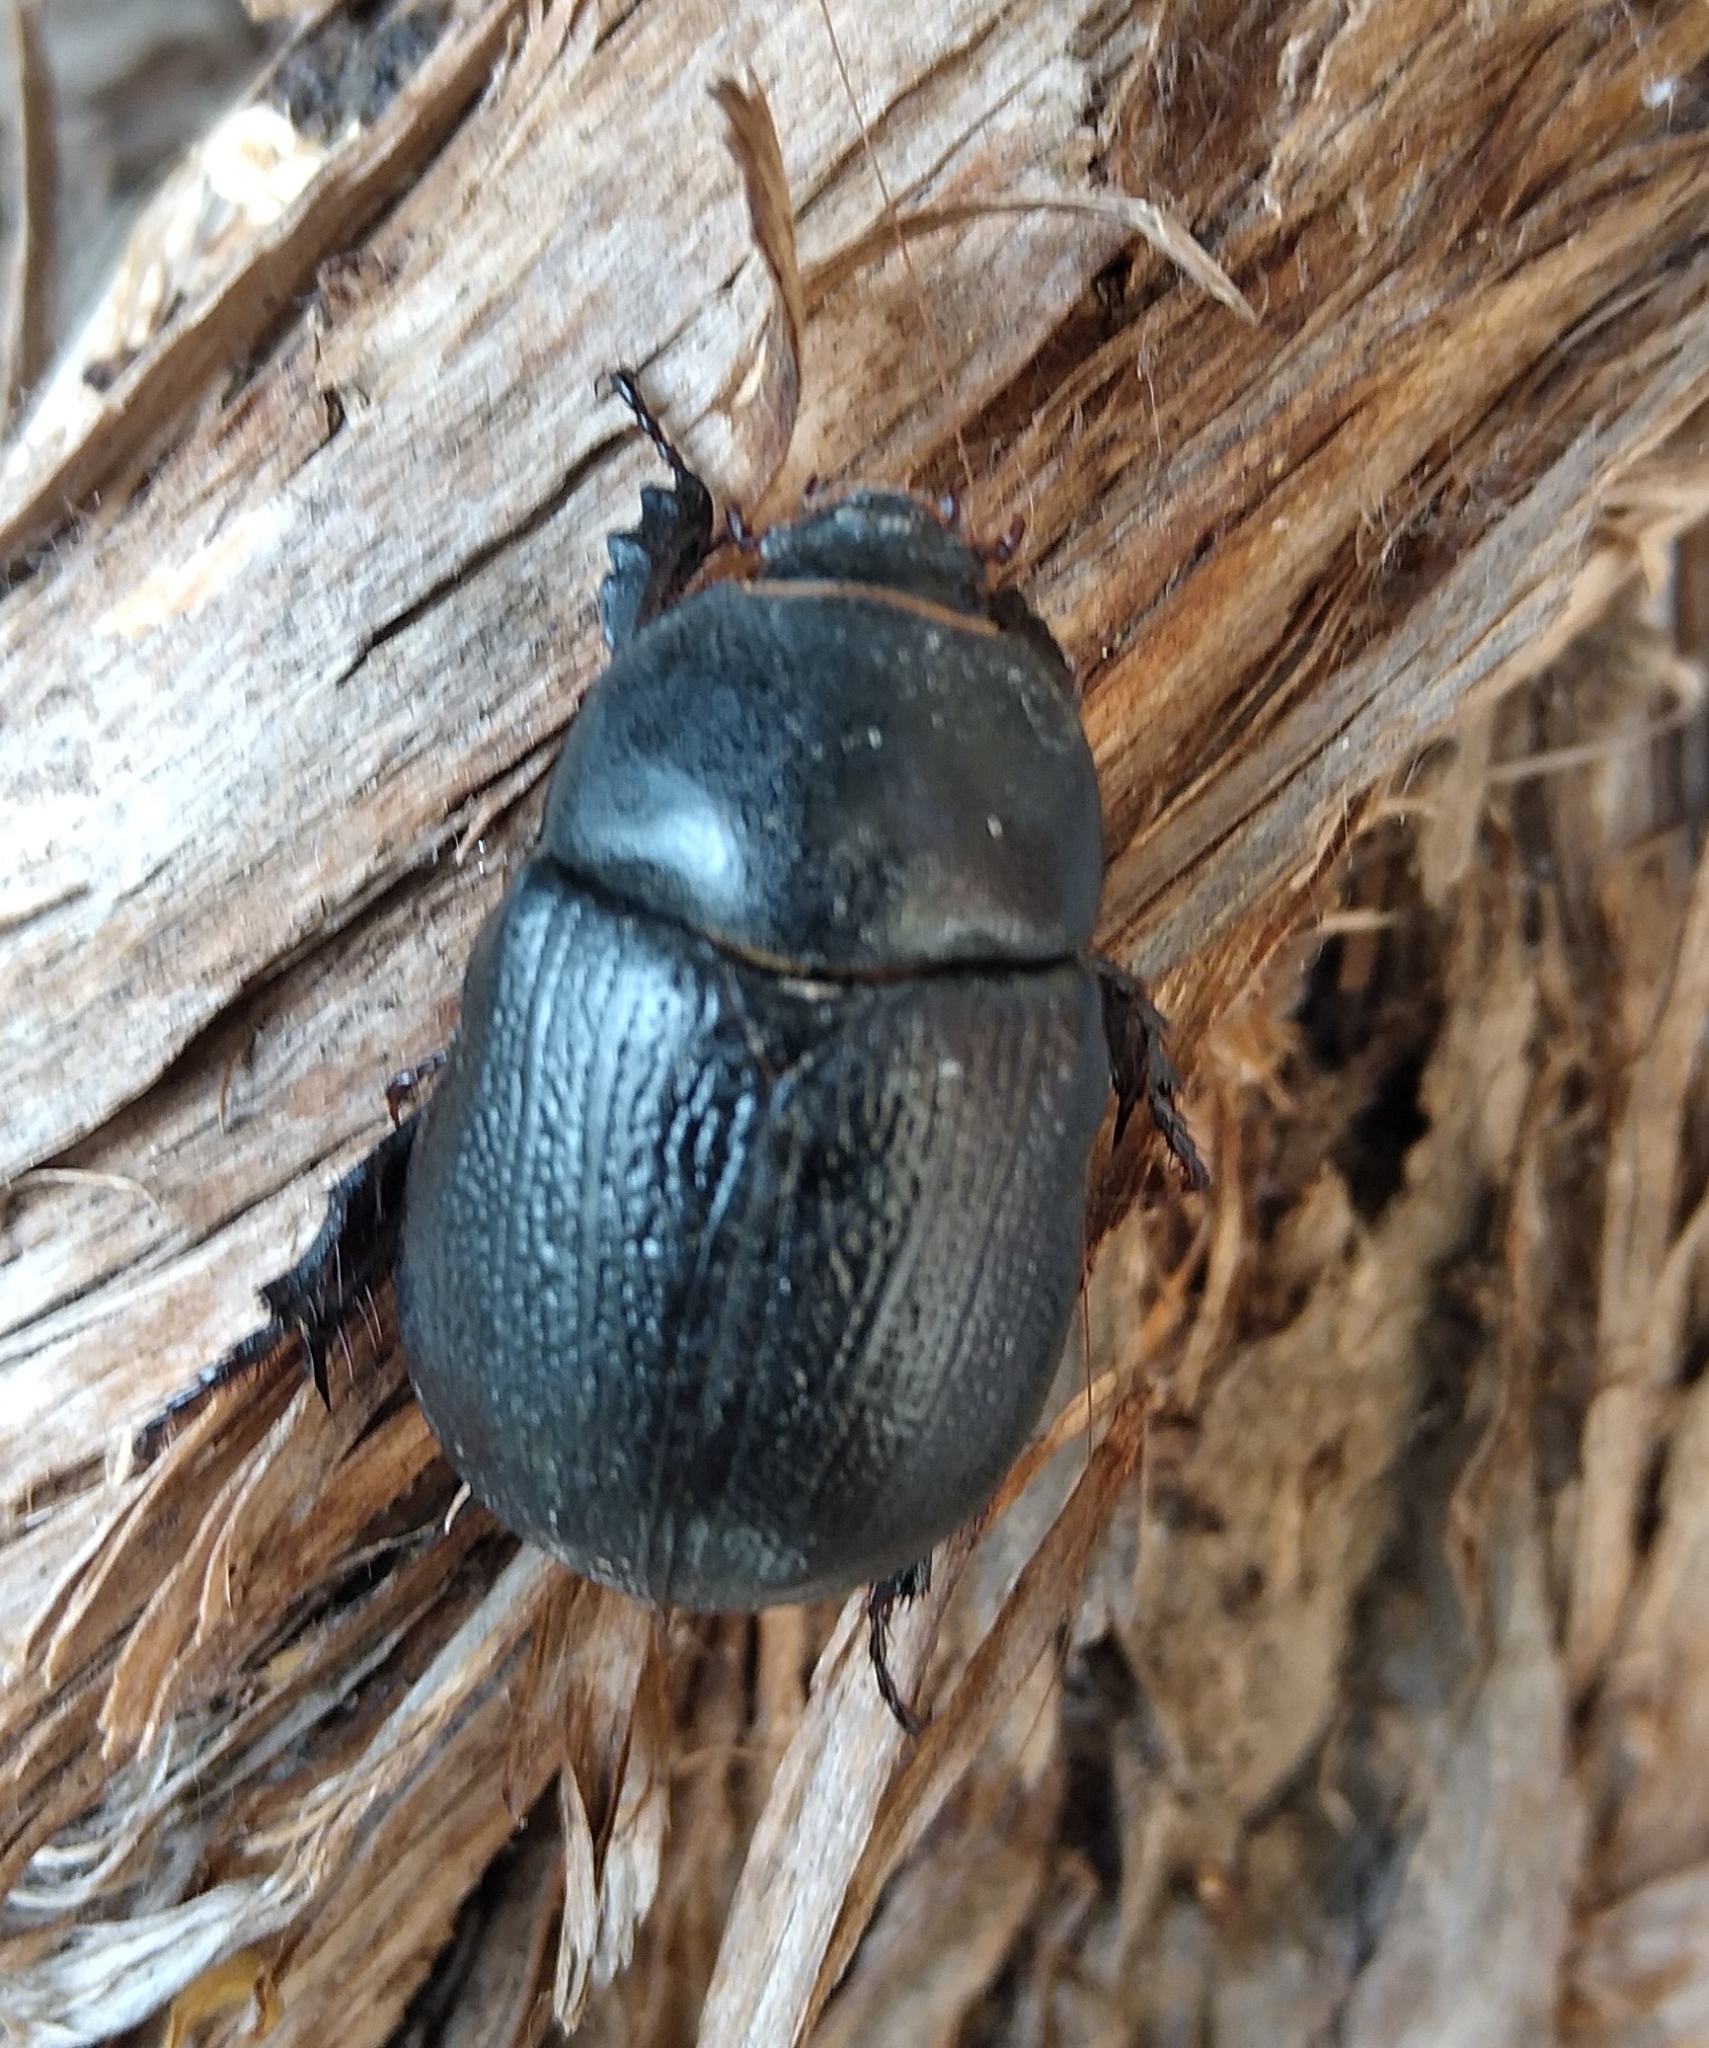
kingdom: Animalia
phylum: Arthropoda
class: Insecta
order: Coleoptera
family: Scarabaeidae
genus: Pentodon
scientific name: Pentodon bidens
